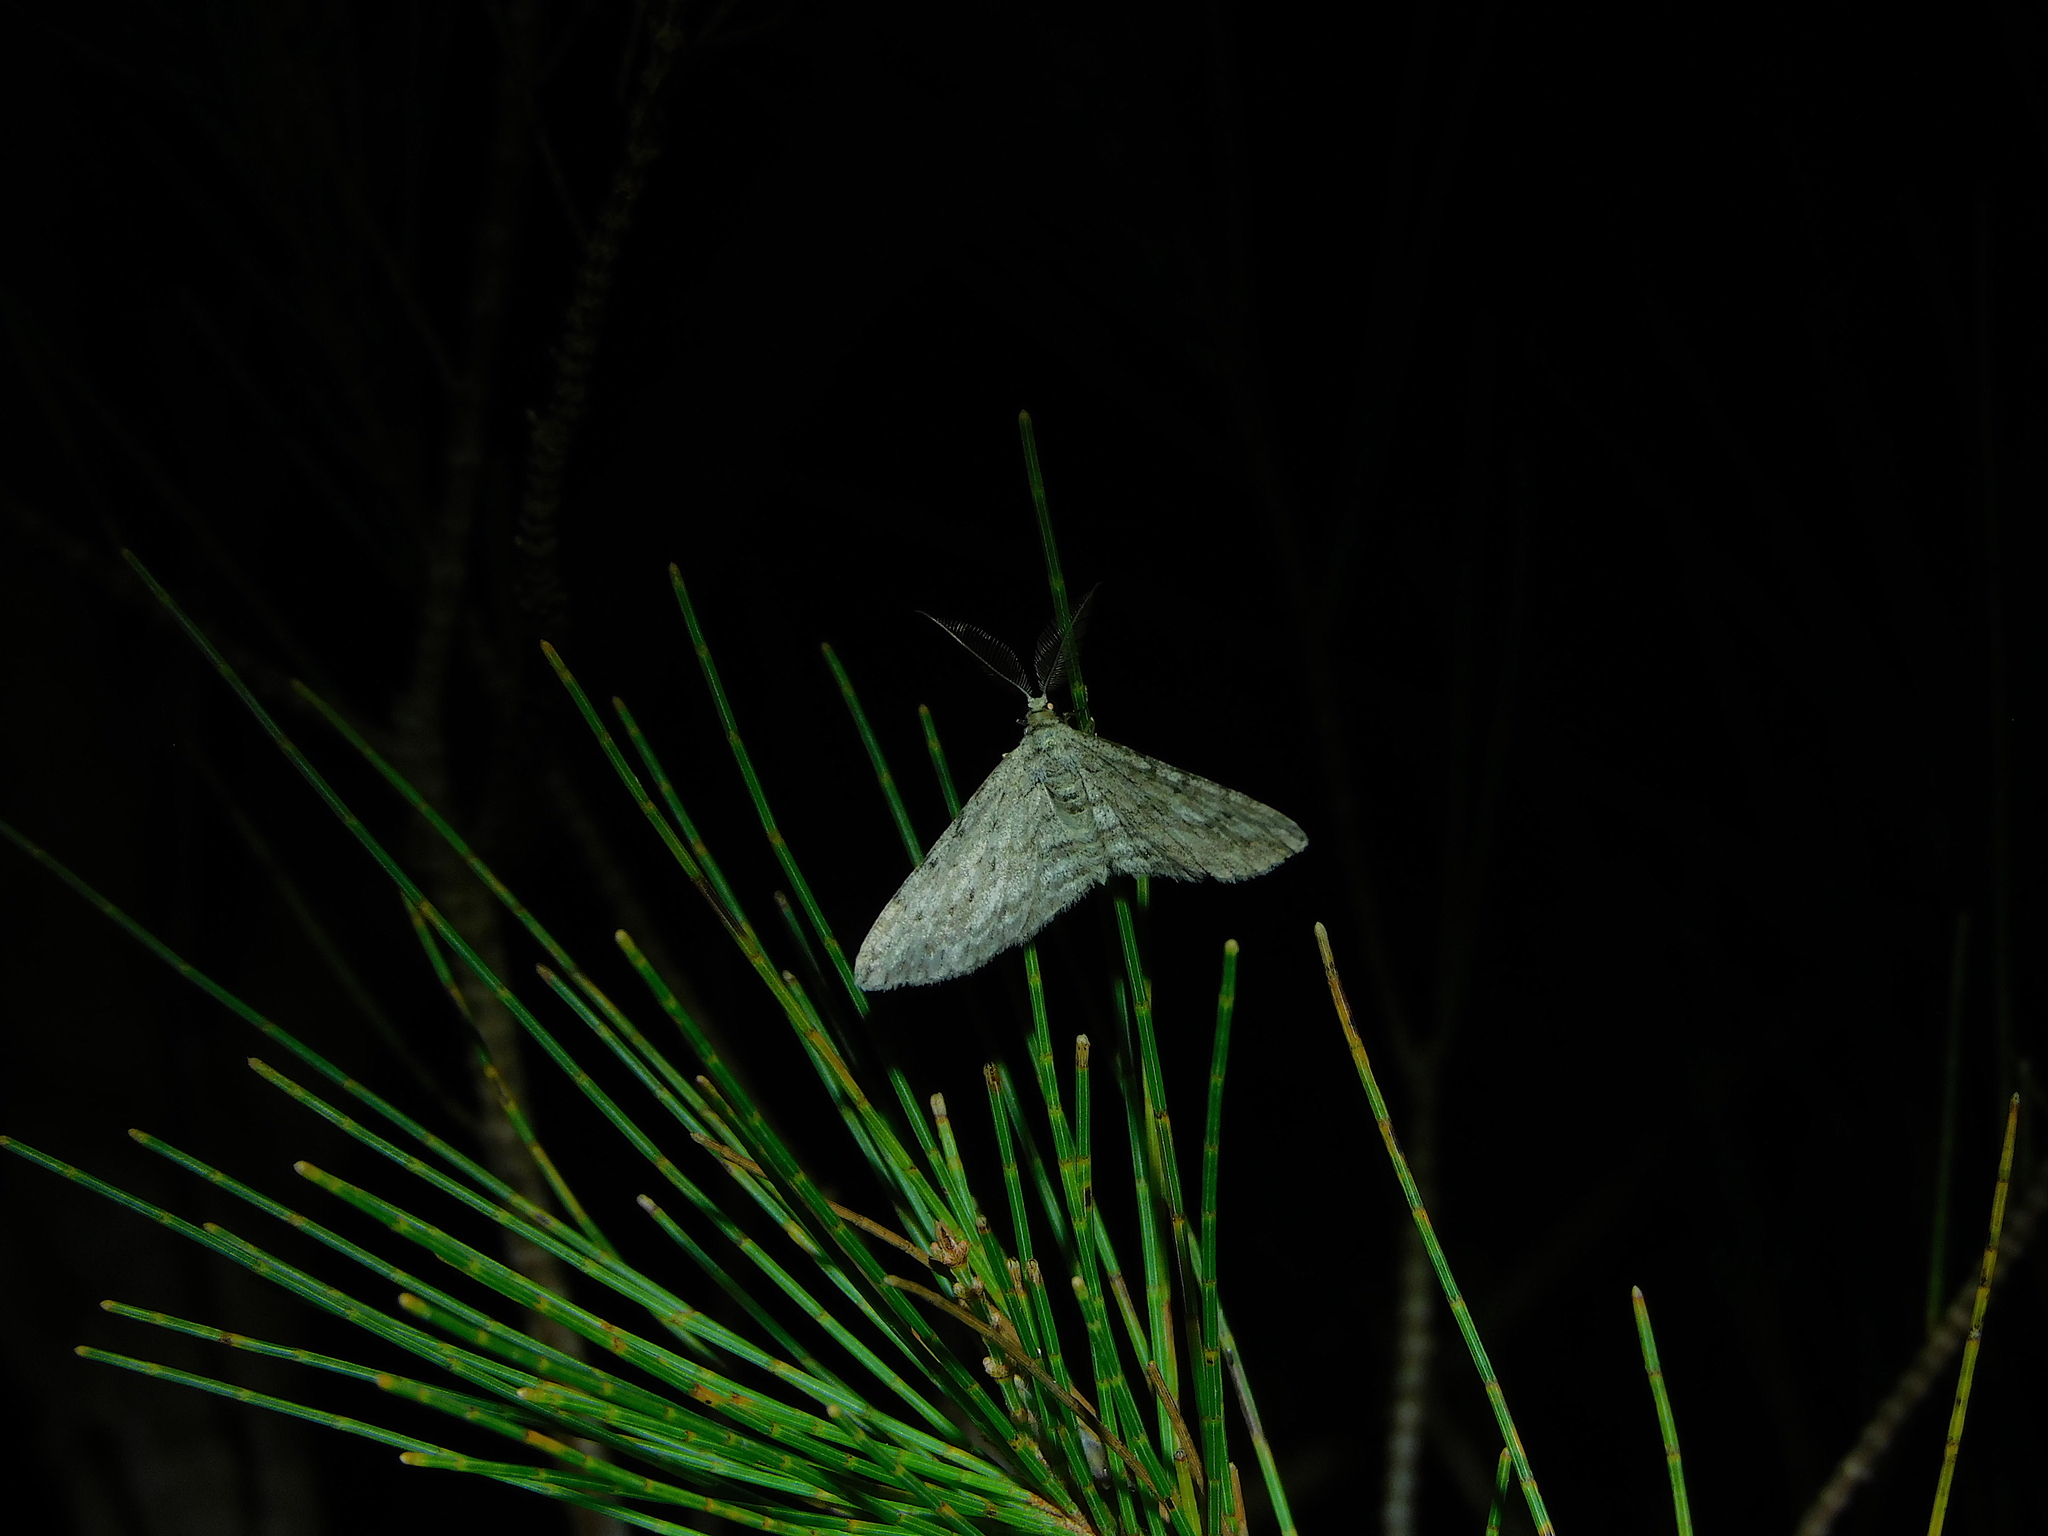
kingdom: Animalia
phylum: Arthropoda
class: Insecta
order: Lepidoptera
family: Geometridae
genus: Phelotis
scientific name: Phelotis cognata
